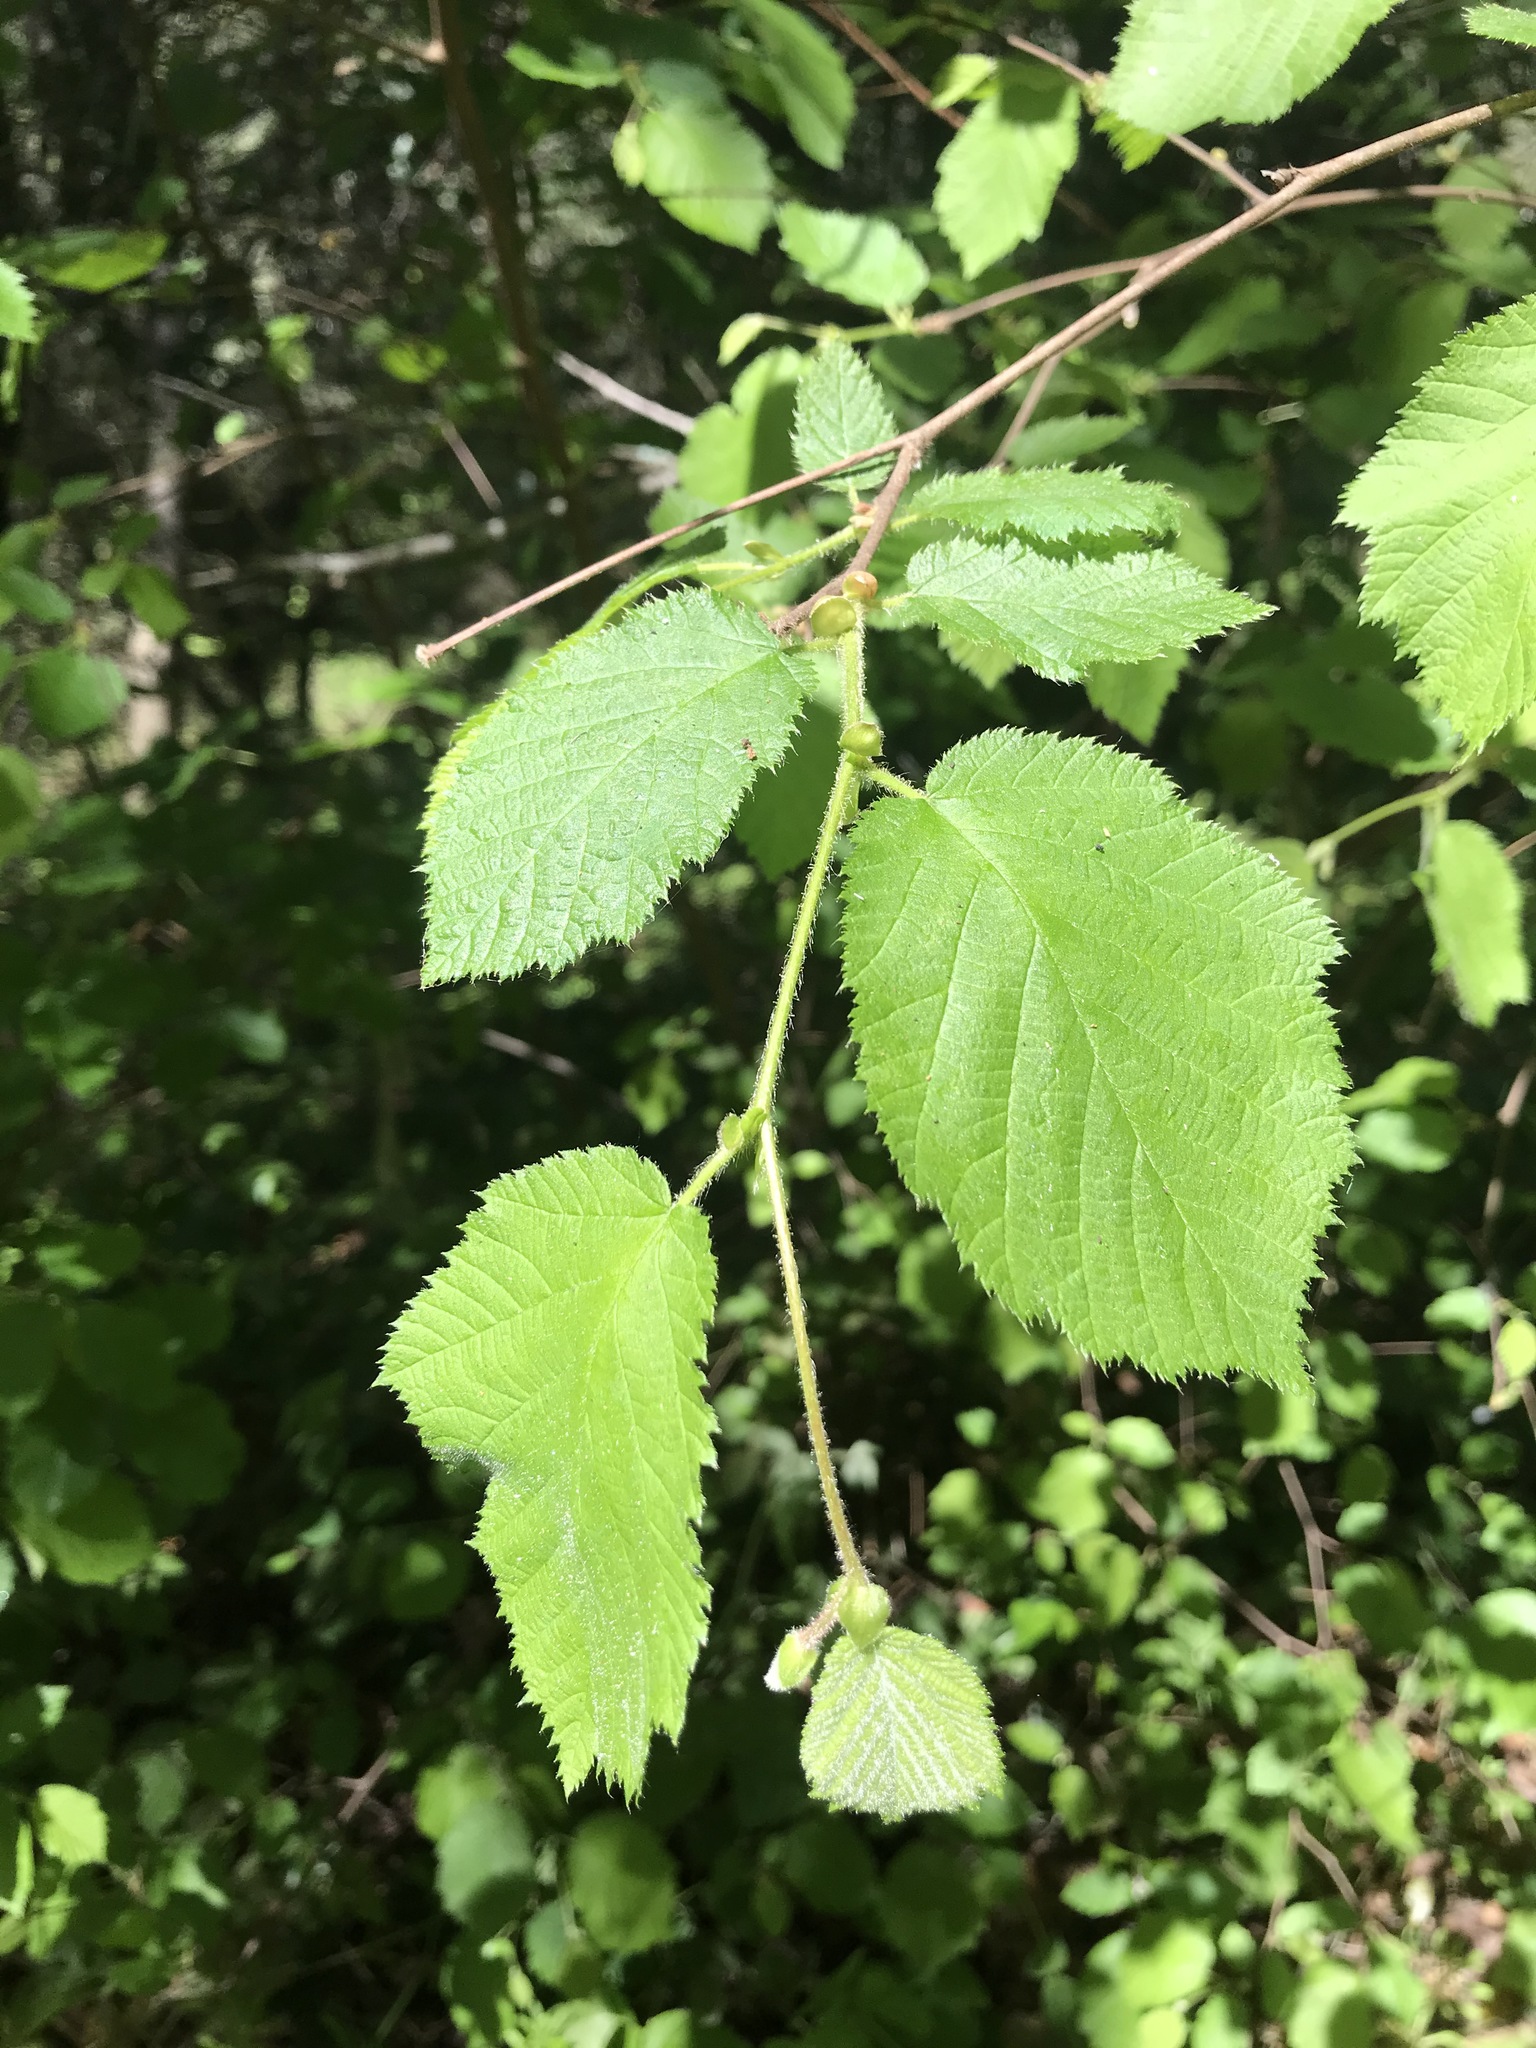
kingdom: Plantae
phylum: Tracheophyta
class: Magnoliopsida
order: Fagales
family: Betulaceae
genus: Corylus
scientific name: Corylus cornuta
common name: Beaked hazel
